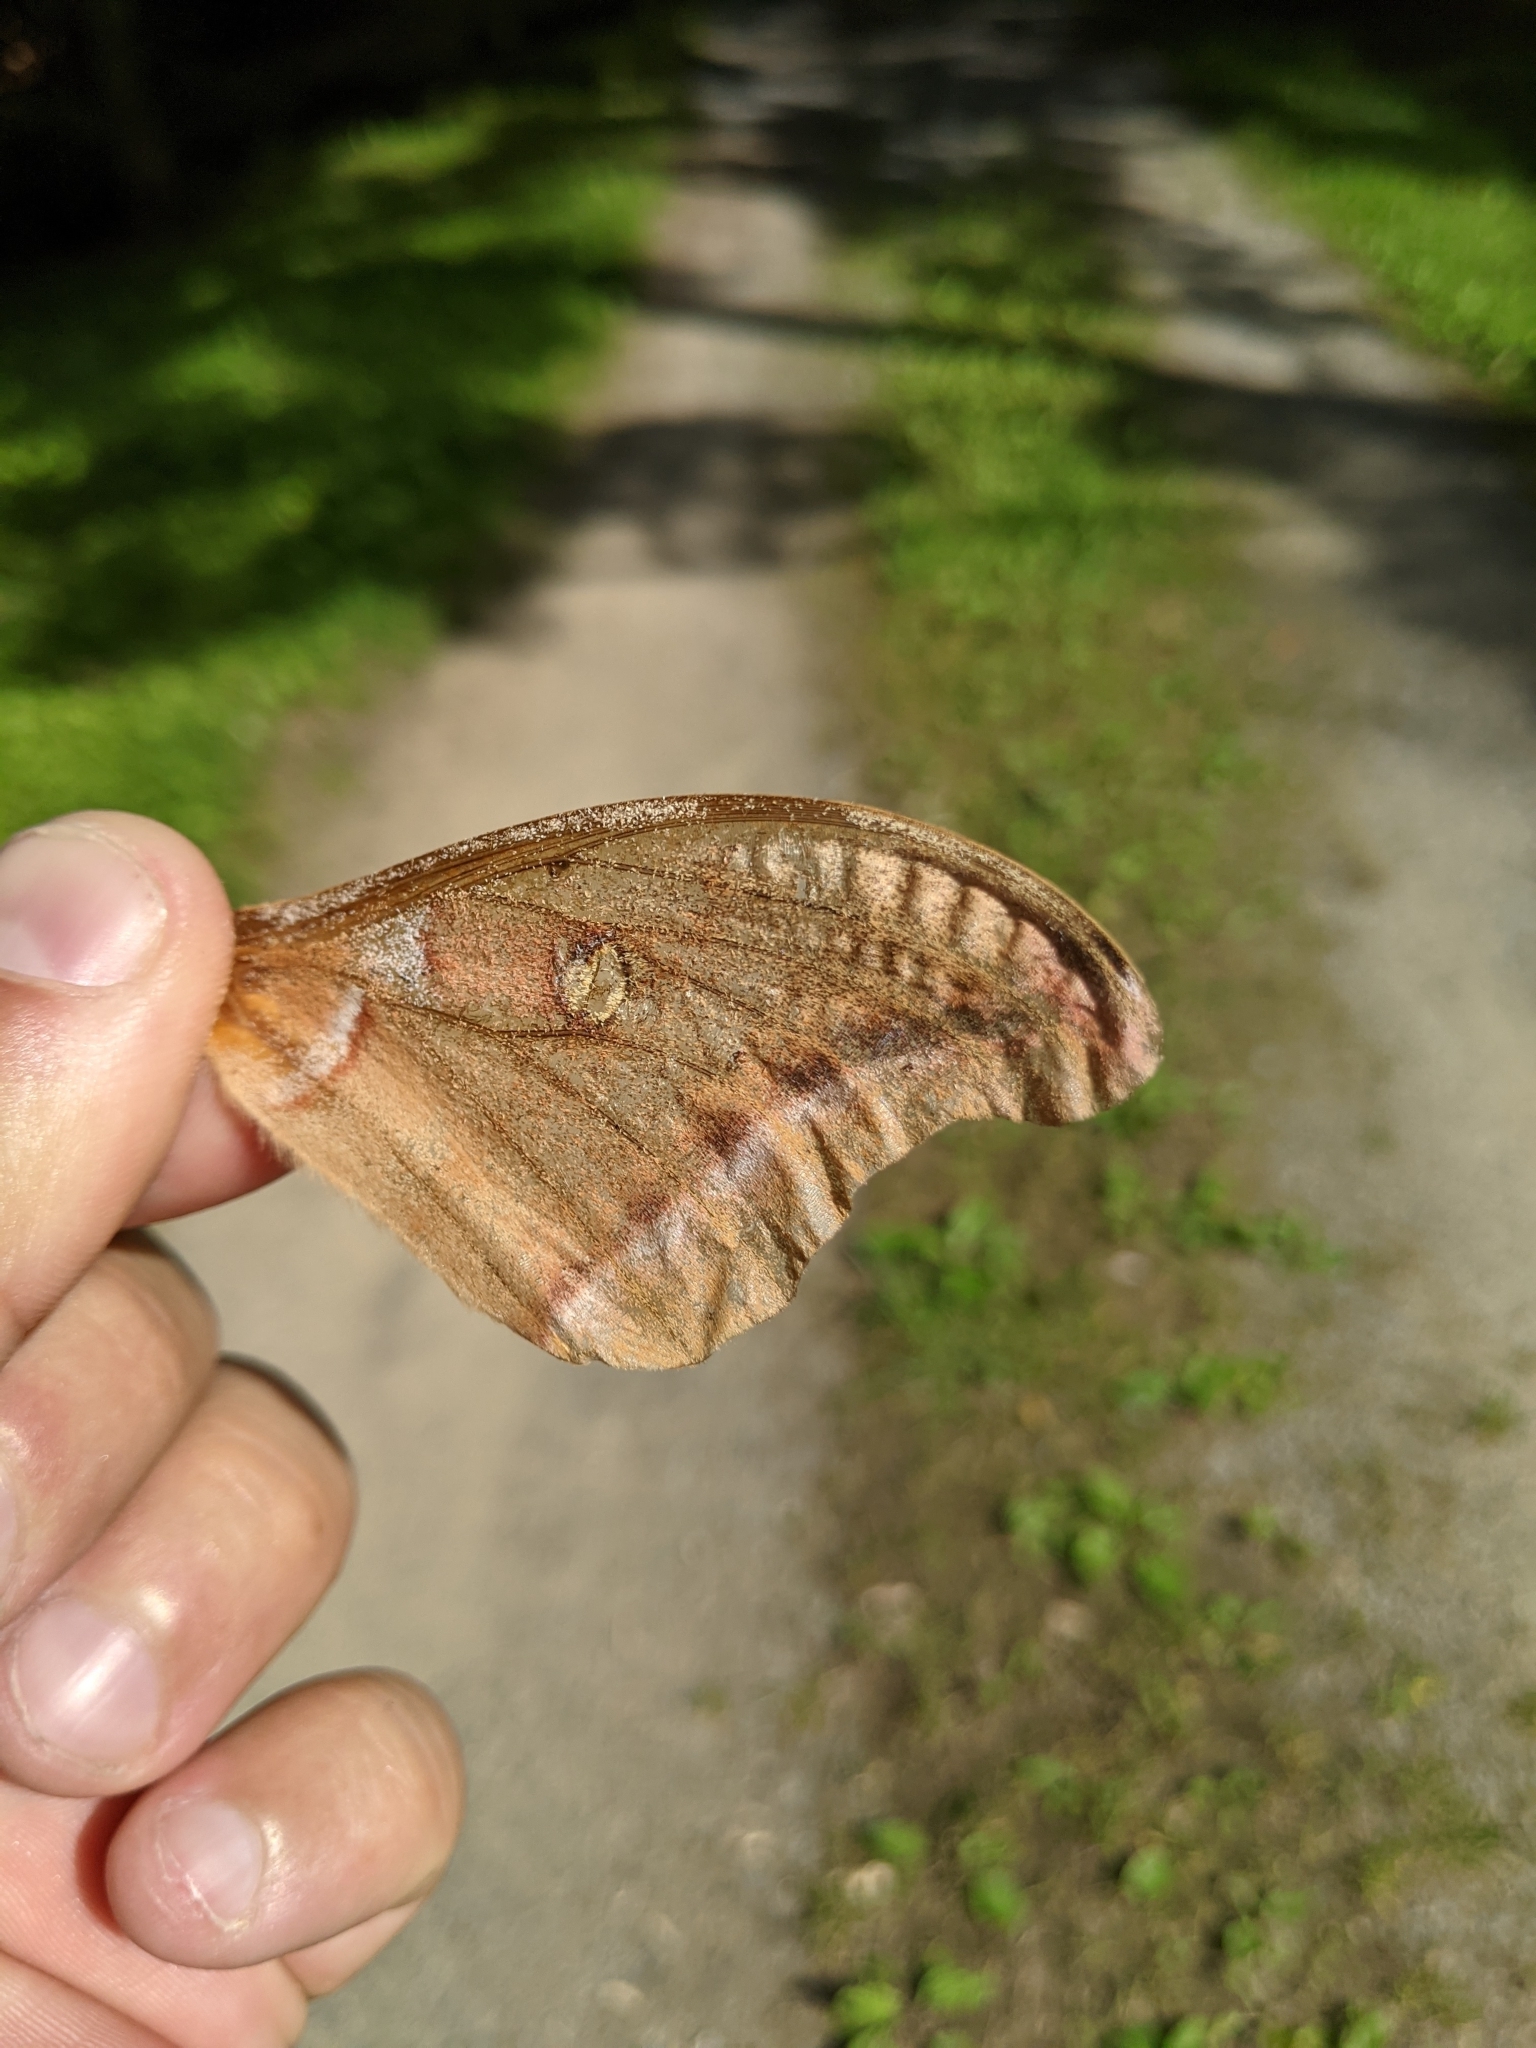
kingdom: Animalia
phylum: Arthropoda
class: Insecta
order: Lepidoptera
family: Saturniidae
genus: Antheraea
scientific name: Antheraea polyphemus
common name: Polyphemus moth
